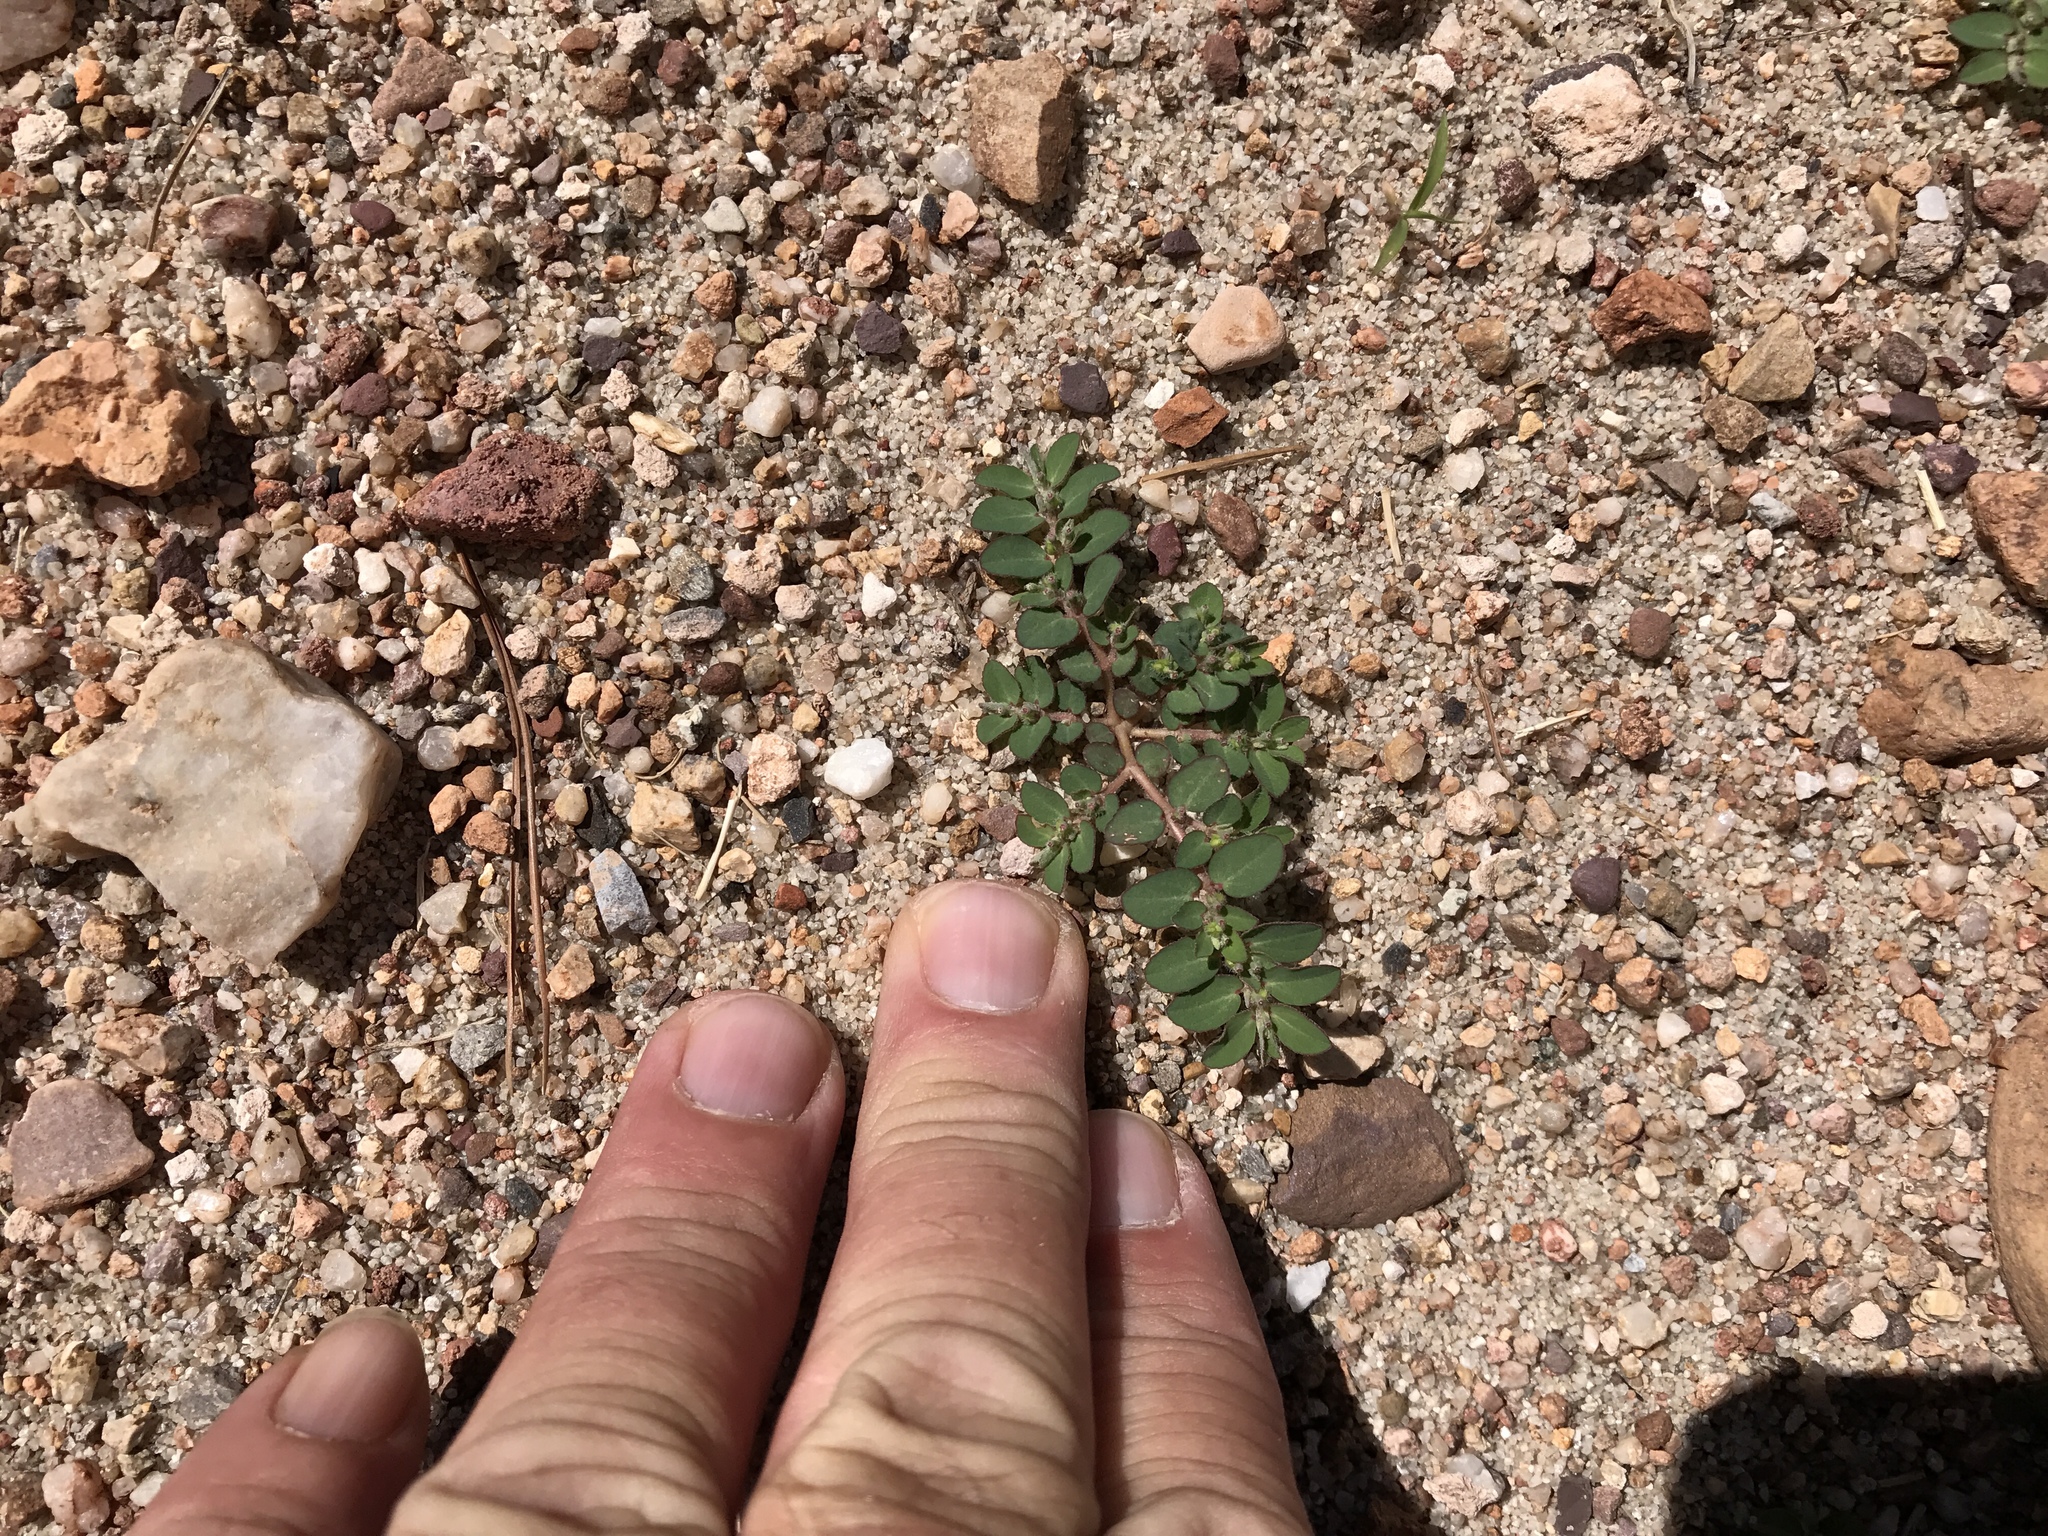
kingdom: Plantae
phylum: Tracheophyta
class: Magnoliopsida
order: Malpighiales
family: Euphorbiaceae
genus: Euphorbia
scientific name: Euphorbia prostrata
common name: Prostrate sandmat
